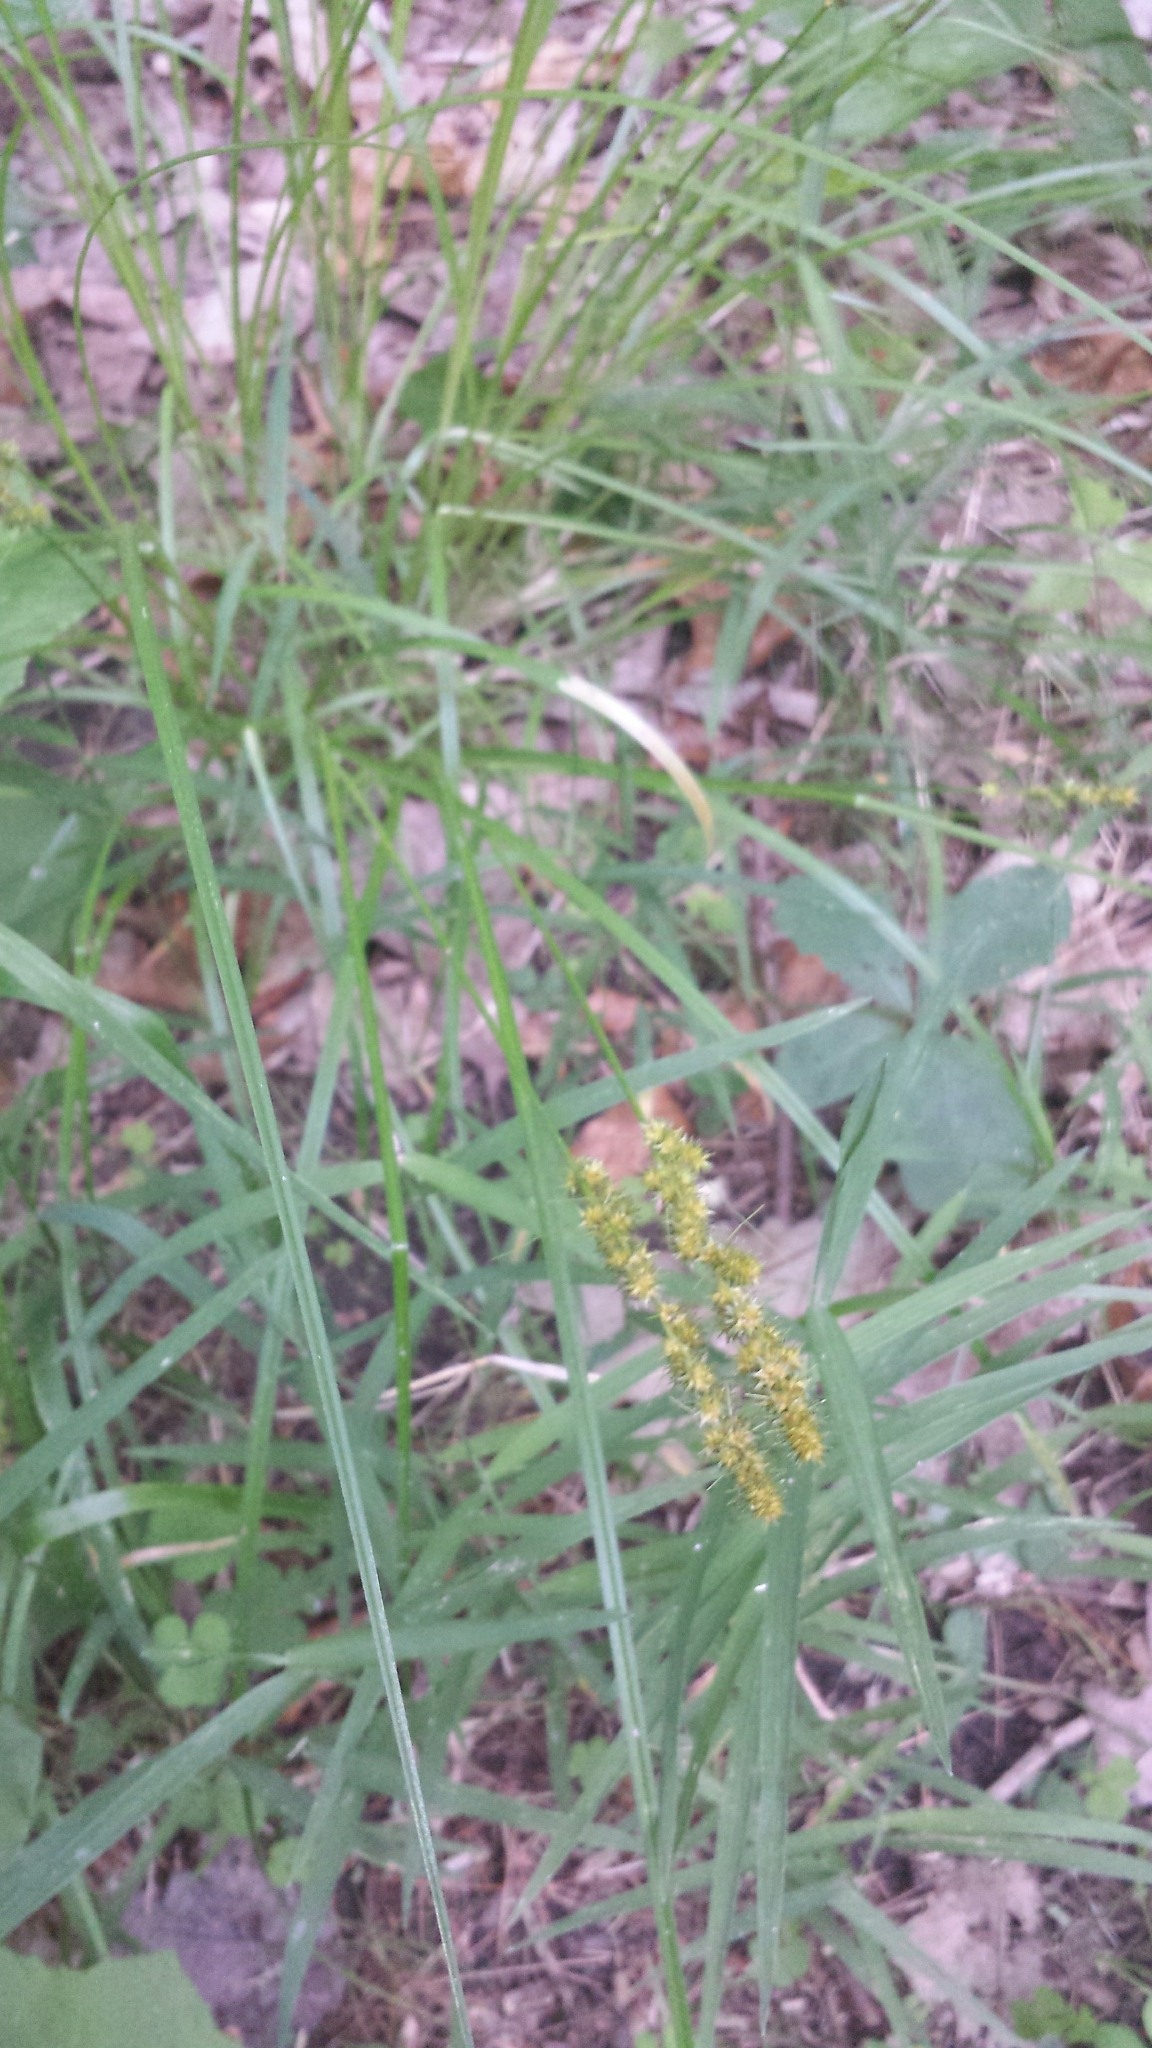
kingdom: Plantae
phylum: Tracheophyta
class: Liliopsida
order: Poales
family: Cyperaceae
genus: Carex
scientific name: Carex vulpinoidea
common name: American fox-sedge
